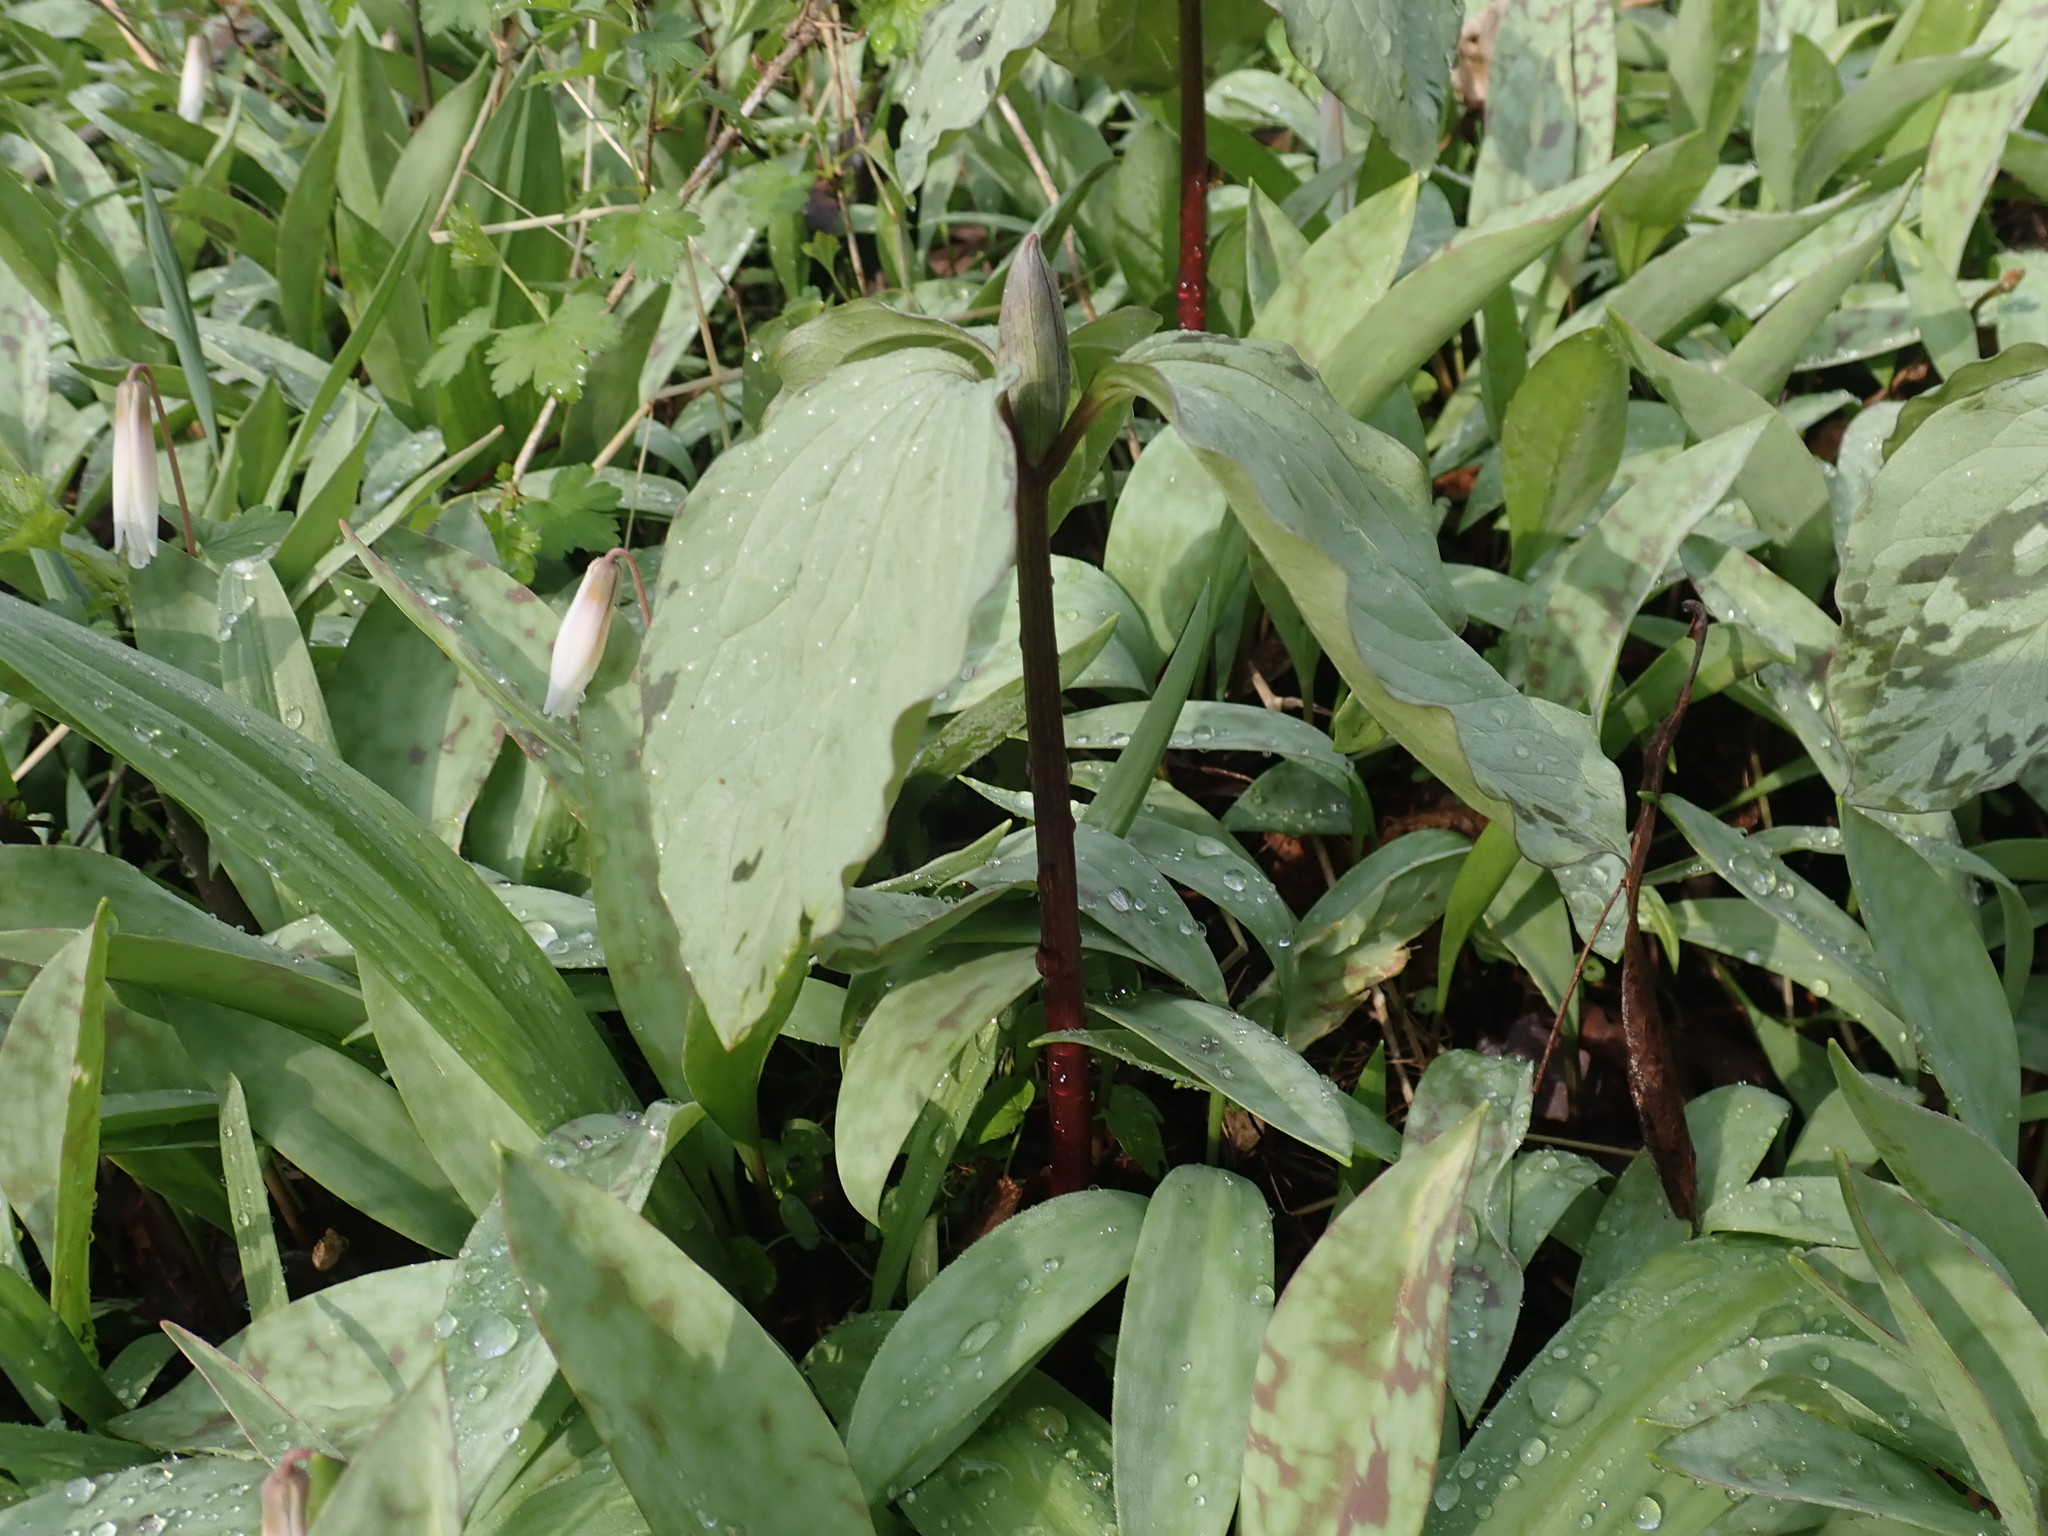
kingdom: Plantae
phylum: Tracheophyta
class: Liliopsida
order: Liliales
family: Melanthiaceae
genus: Trillium
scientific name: Trillium recurvatum
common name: Bloody butcher
